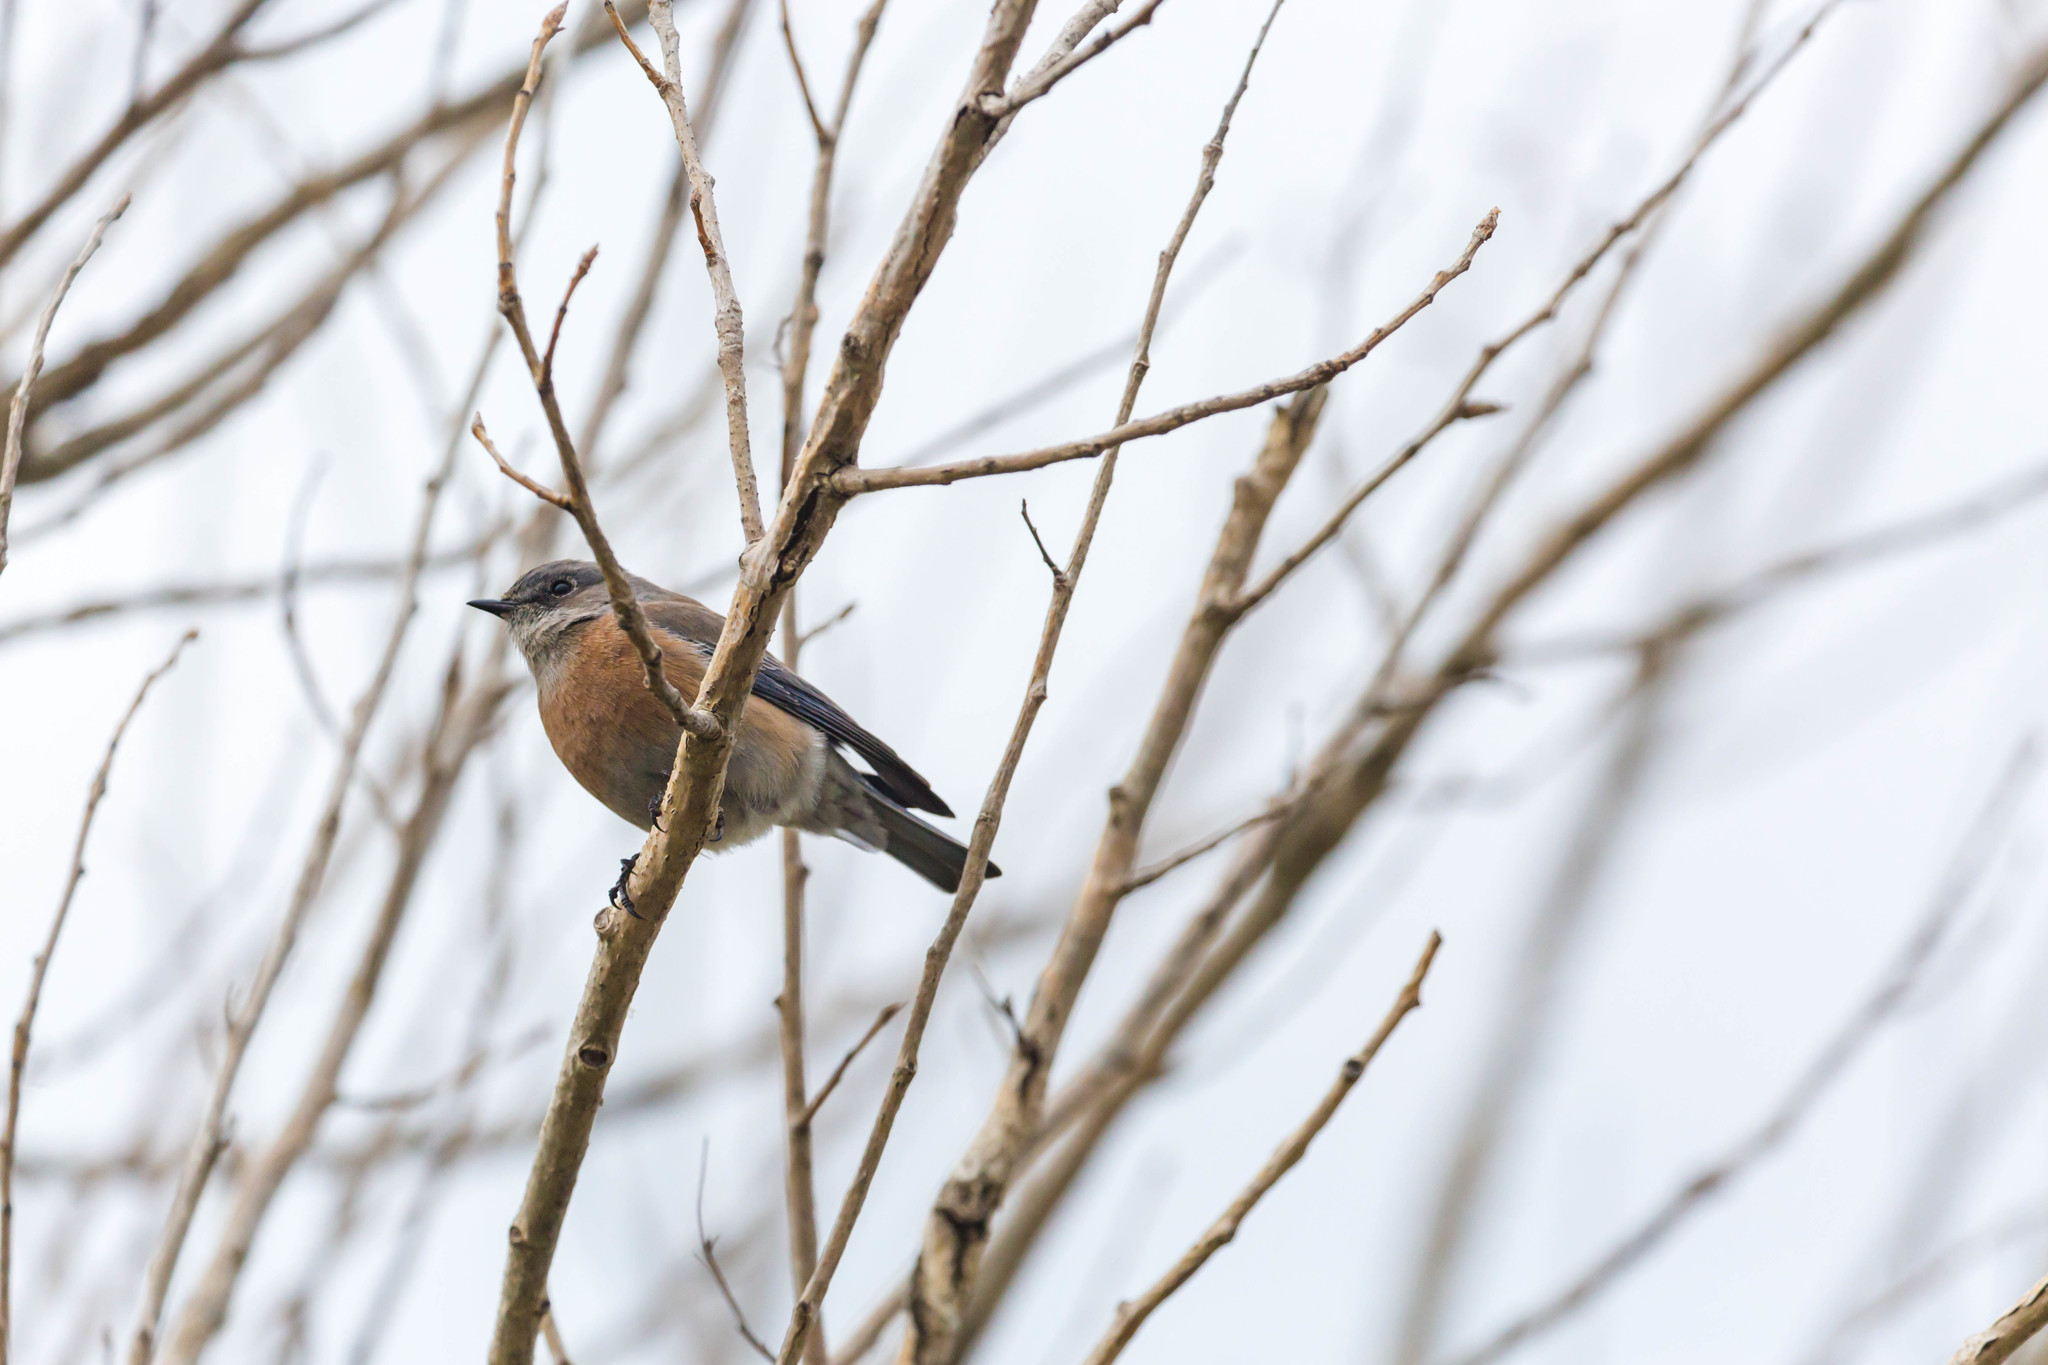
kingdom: Animalia
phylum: Chordata
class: Aves
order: Passeriformes
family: Turdidae
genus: Sialia
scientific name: Sialia mexicana
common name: Western bluebird
